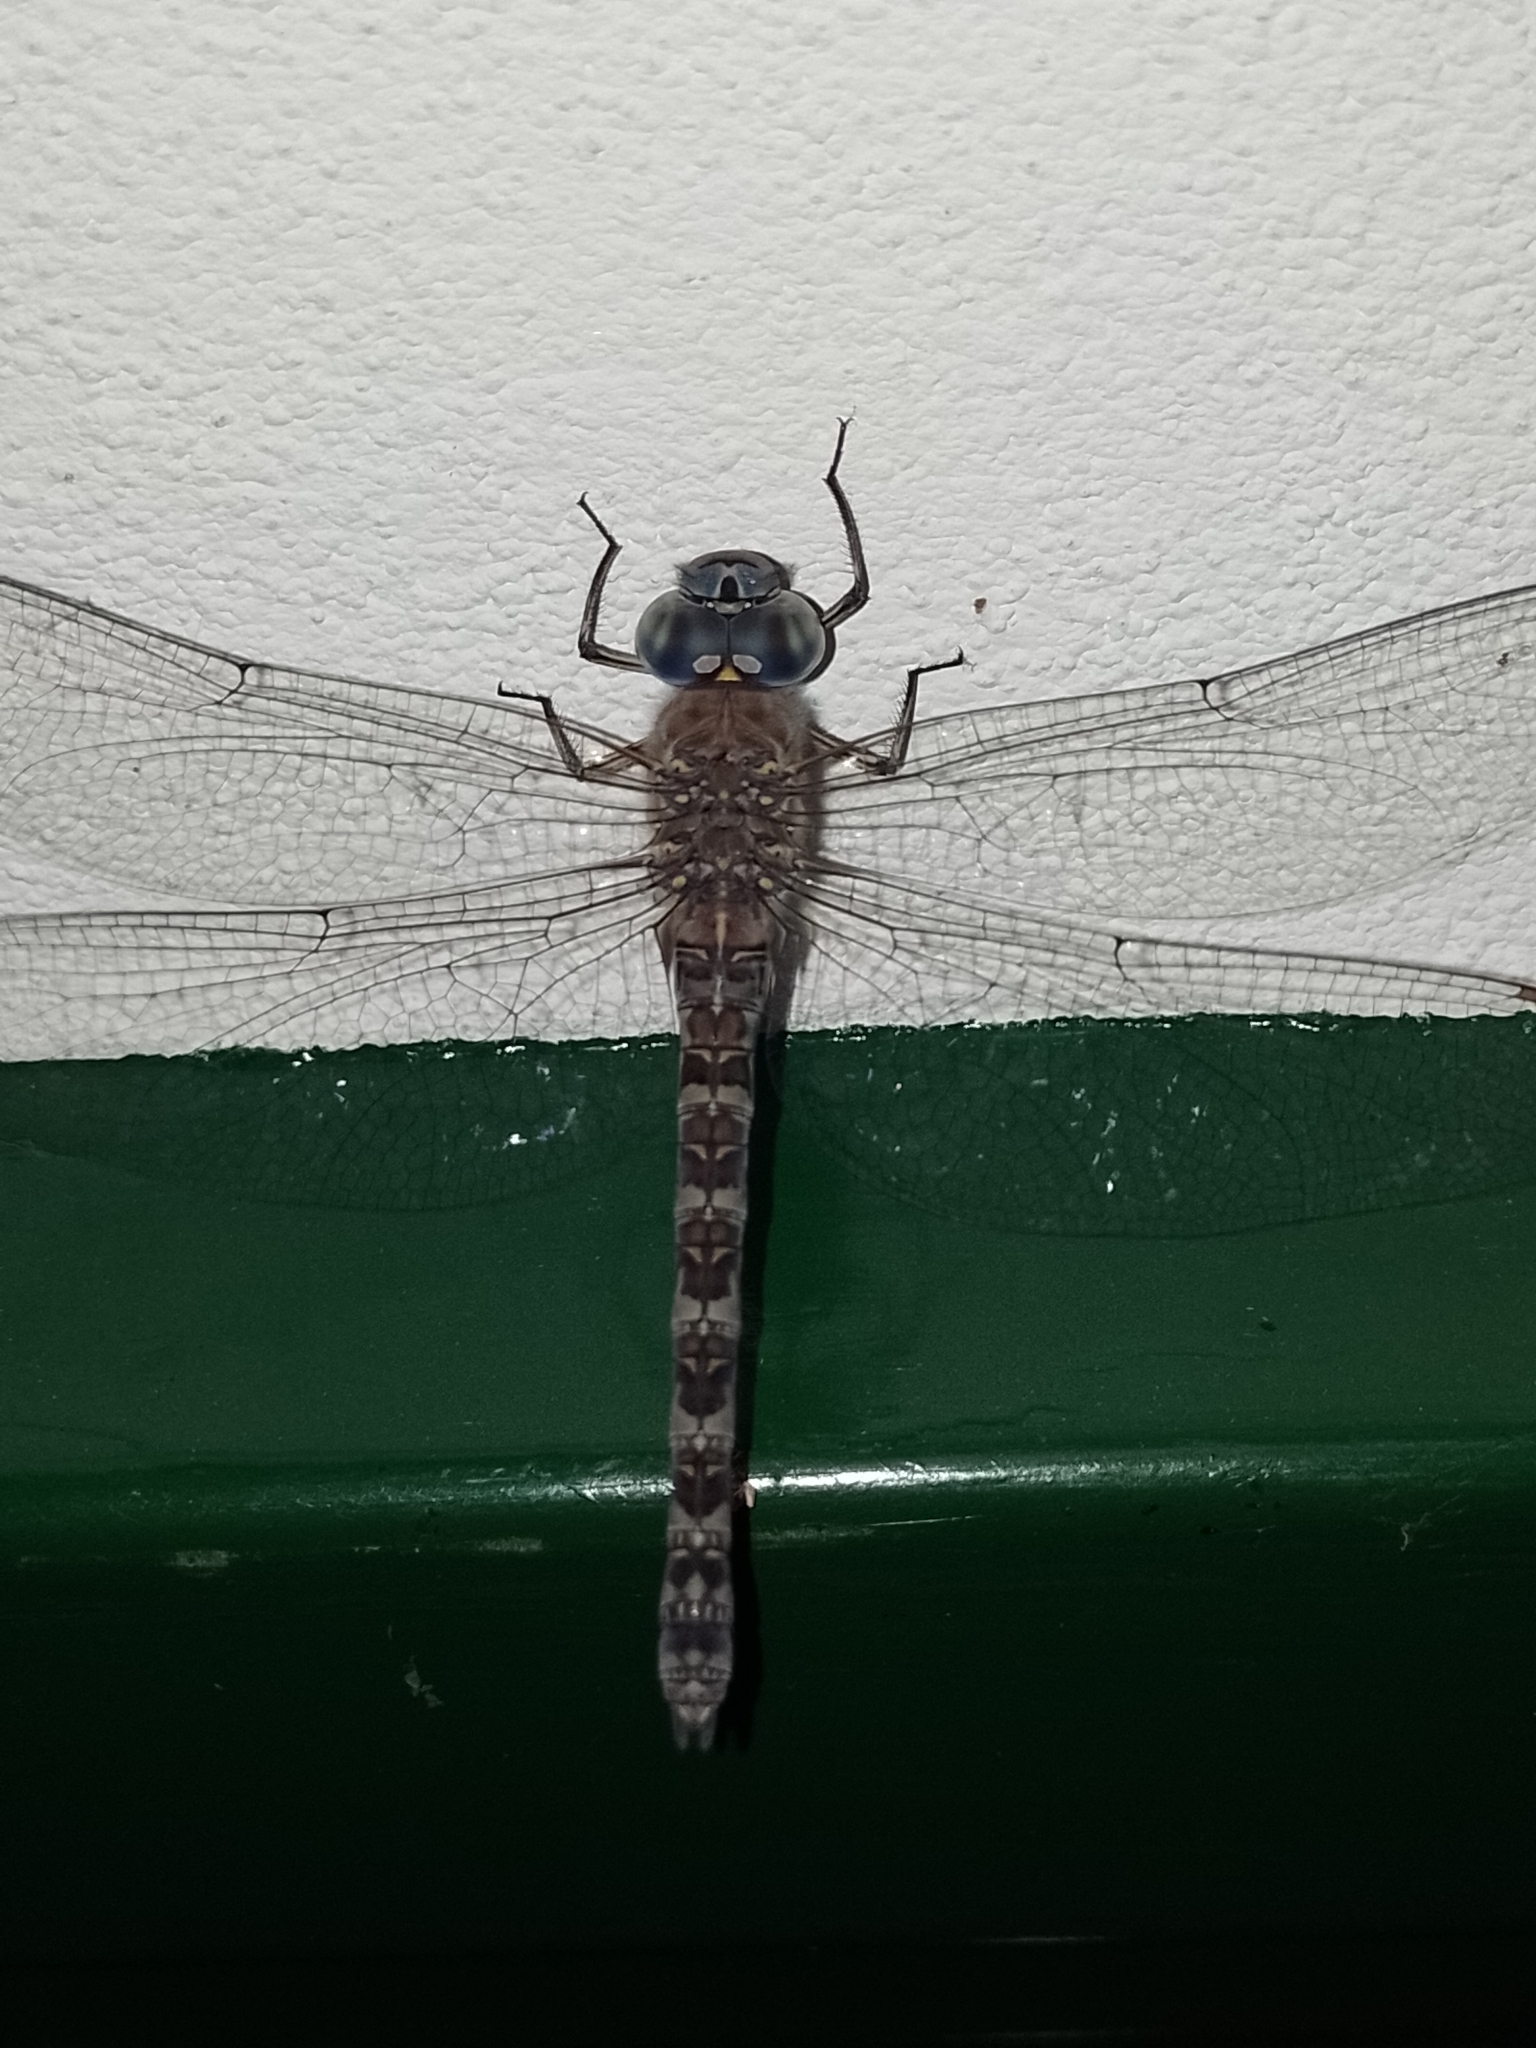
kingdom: Animalia
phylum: Arthropoda
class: Insecta
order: Odonata
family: Aeshnidae
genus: Rhionaeschna
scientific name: Rhionaeschna pallipes
